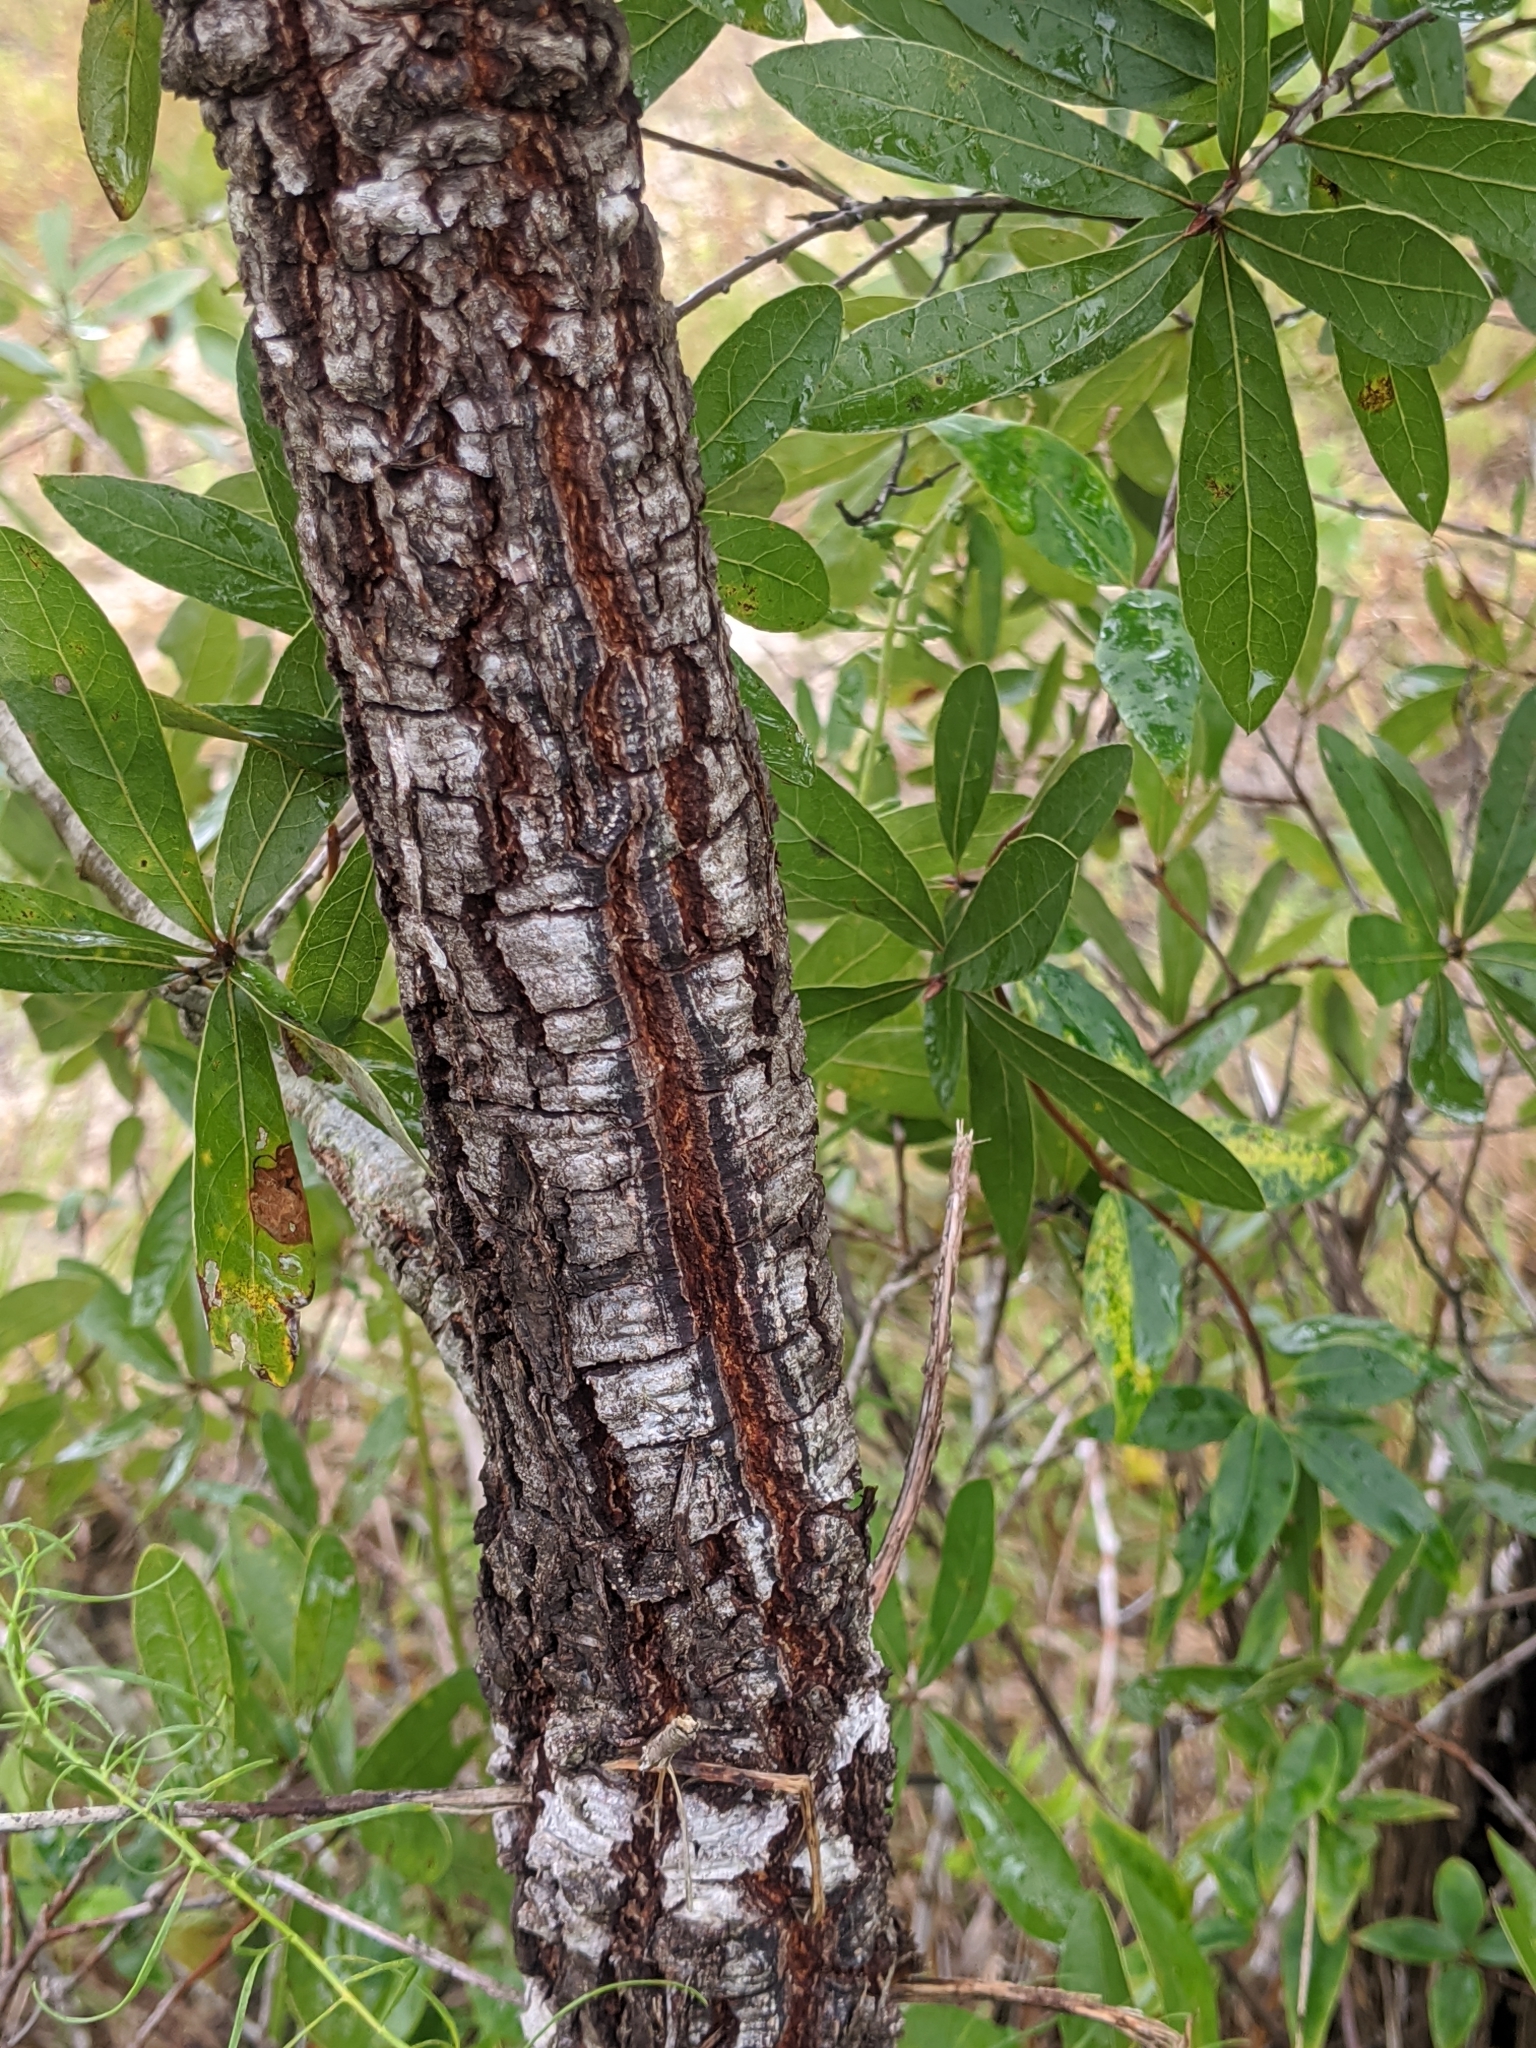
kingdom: Plantae
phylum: Tracheophyta
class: Magnoliopsida
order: Fagales
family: Fagaceae
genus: Quercus
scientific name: Quercus incana
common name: Bluejack oak
